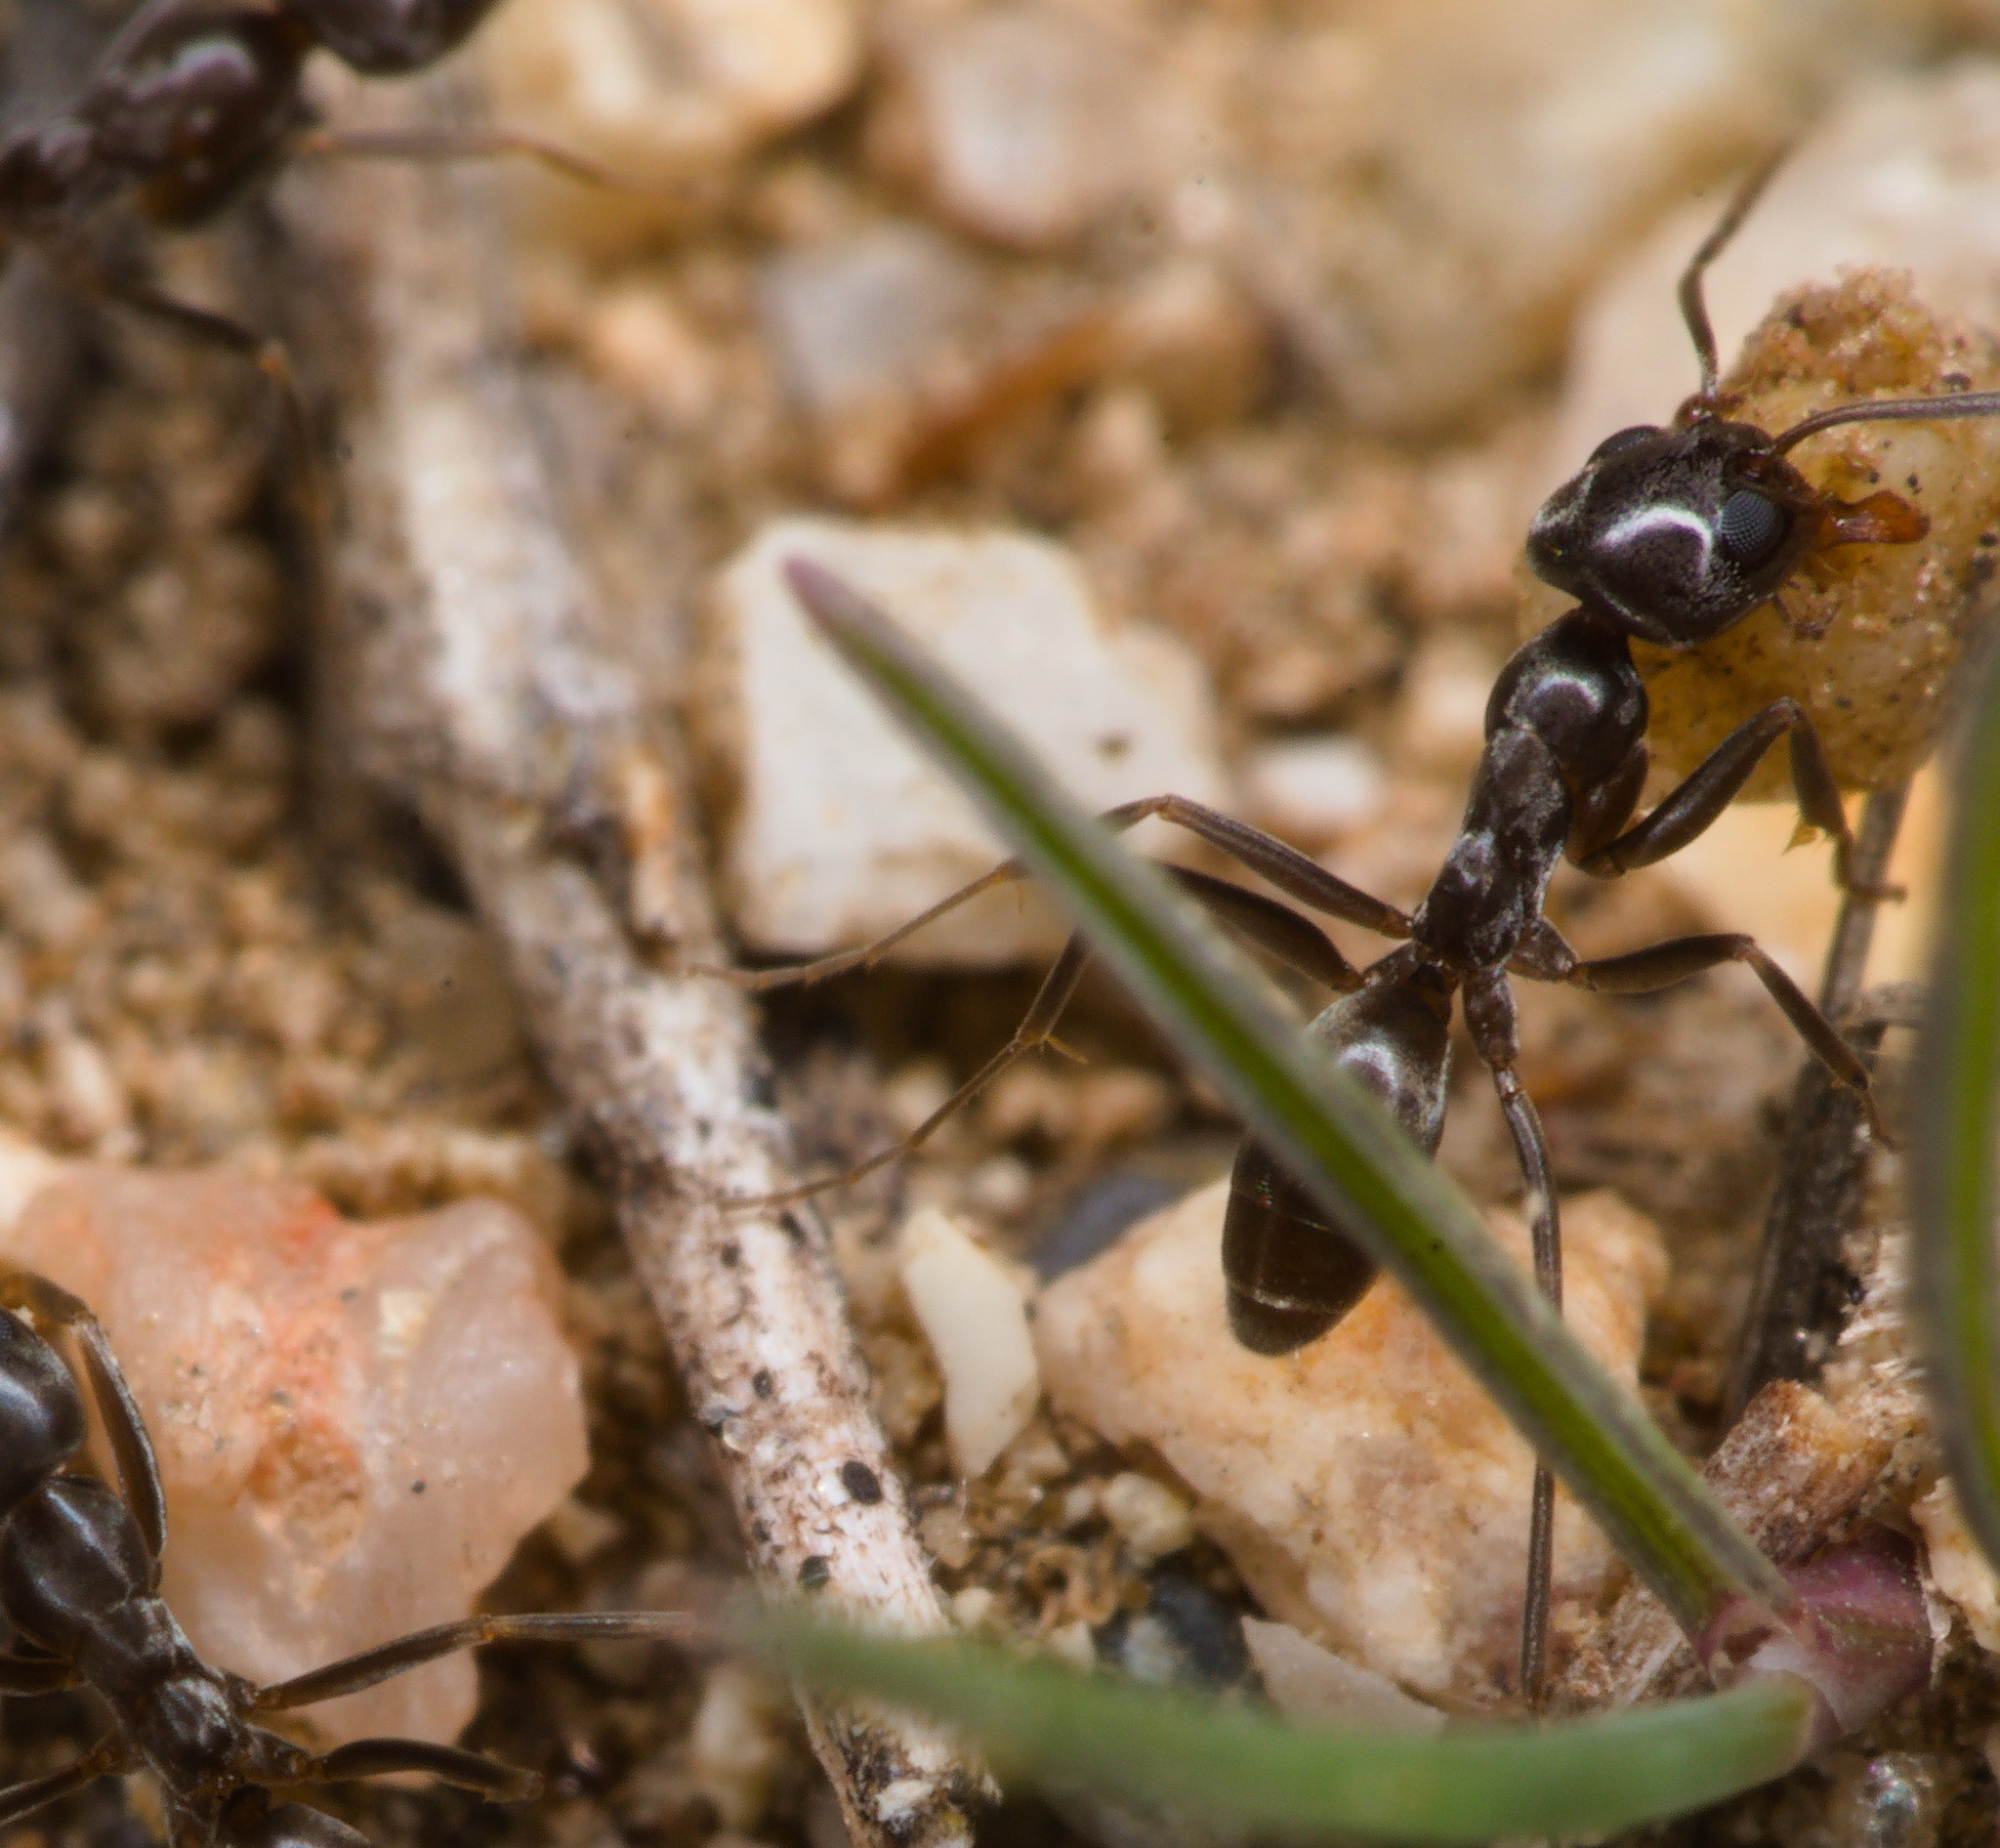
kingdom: Animalia
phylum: Arthropoda
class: Insecta
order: Hymenoptera
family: Formicidae
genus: Dorymyrmex
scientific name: Dorymyrmex insanus
